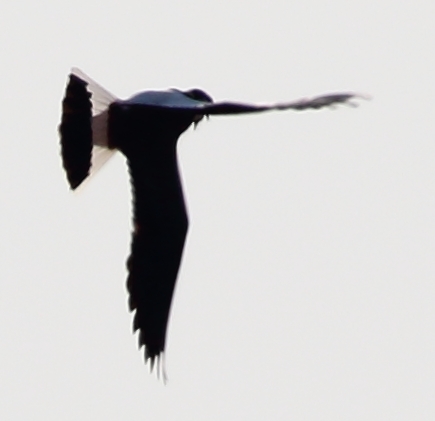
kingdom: Animalia
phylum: Chordata
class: Aves
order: Charadriiformes
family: Charadriidae
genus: Vanellus
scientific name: Vanellus vanellus
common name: Northern lapwing
